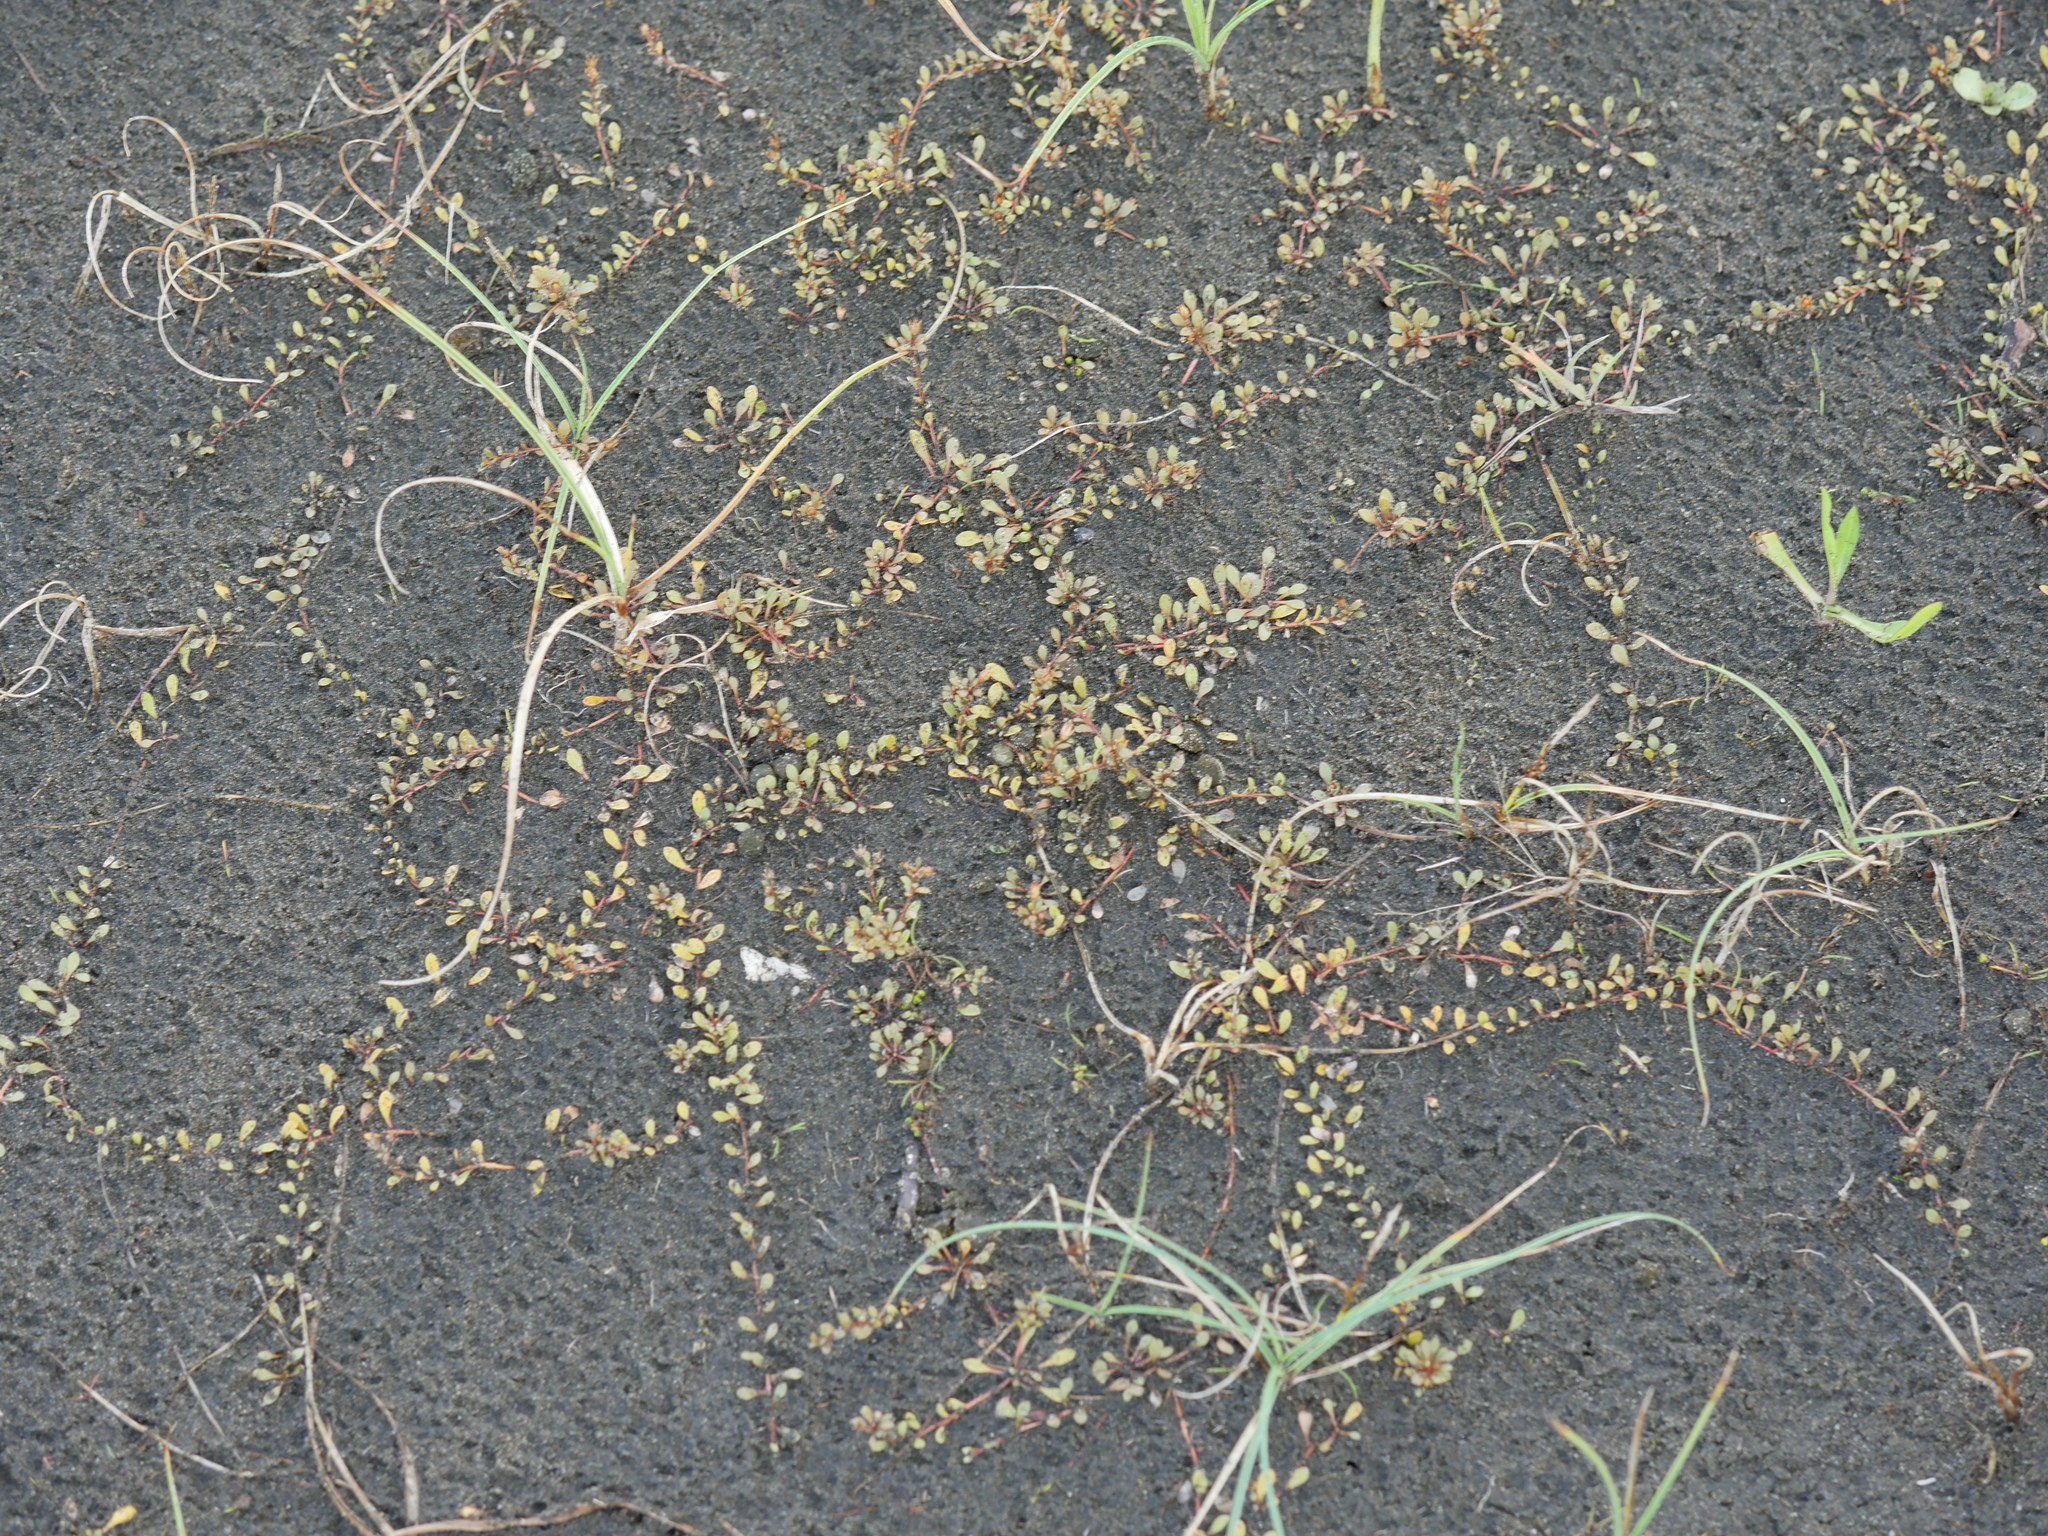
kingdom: Plantae
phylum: Tracheophyta
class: Magnoliopsida
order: Ericales
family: Primulaceae
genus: Samolus
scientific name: Samolus repens
